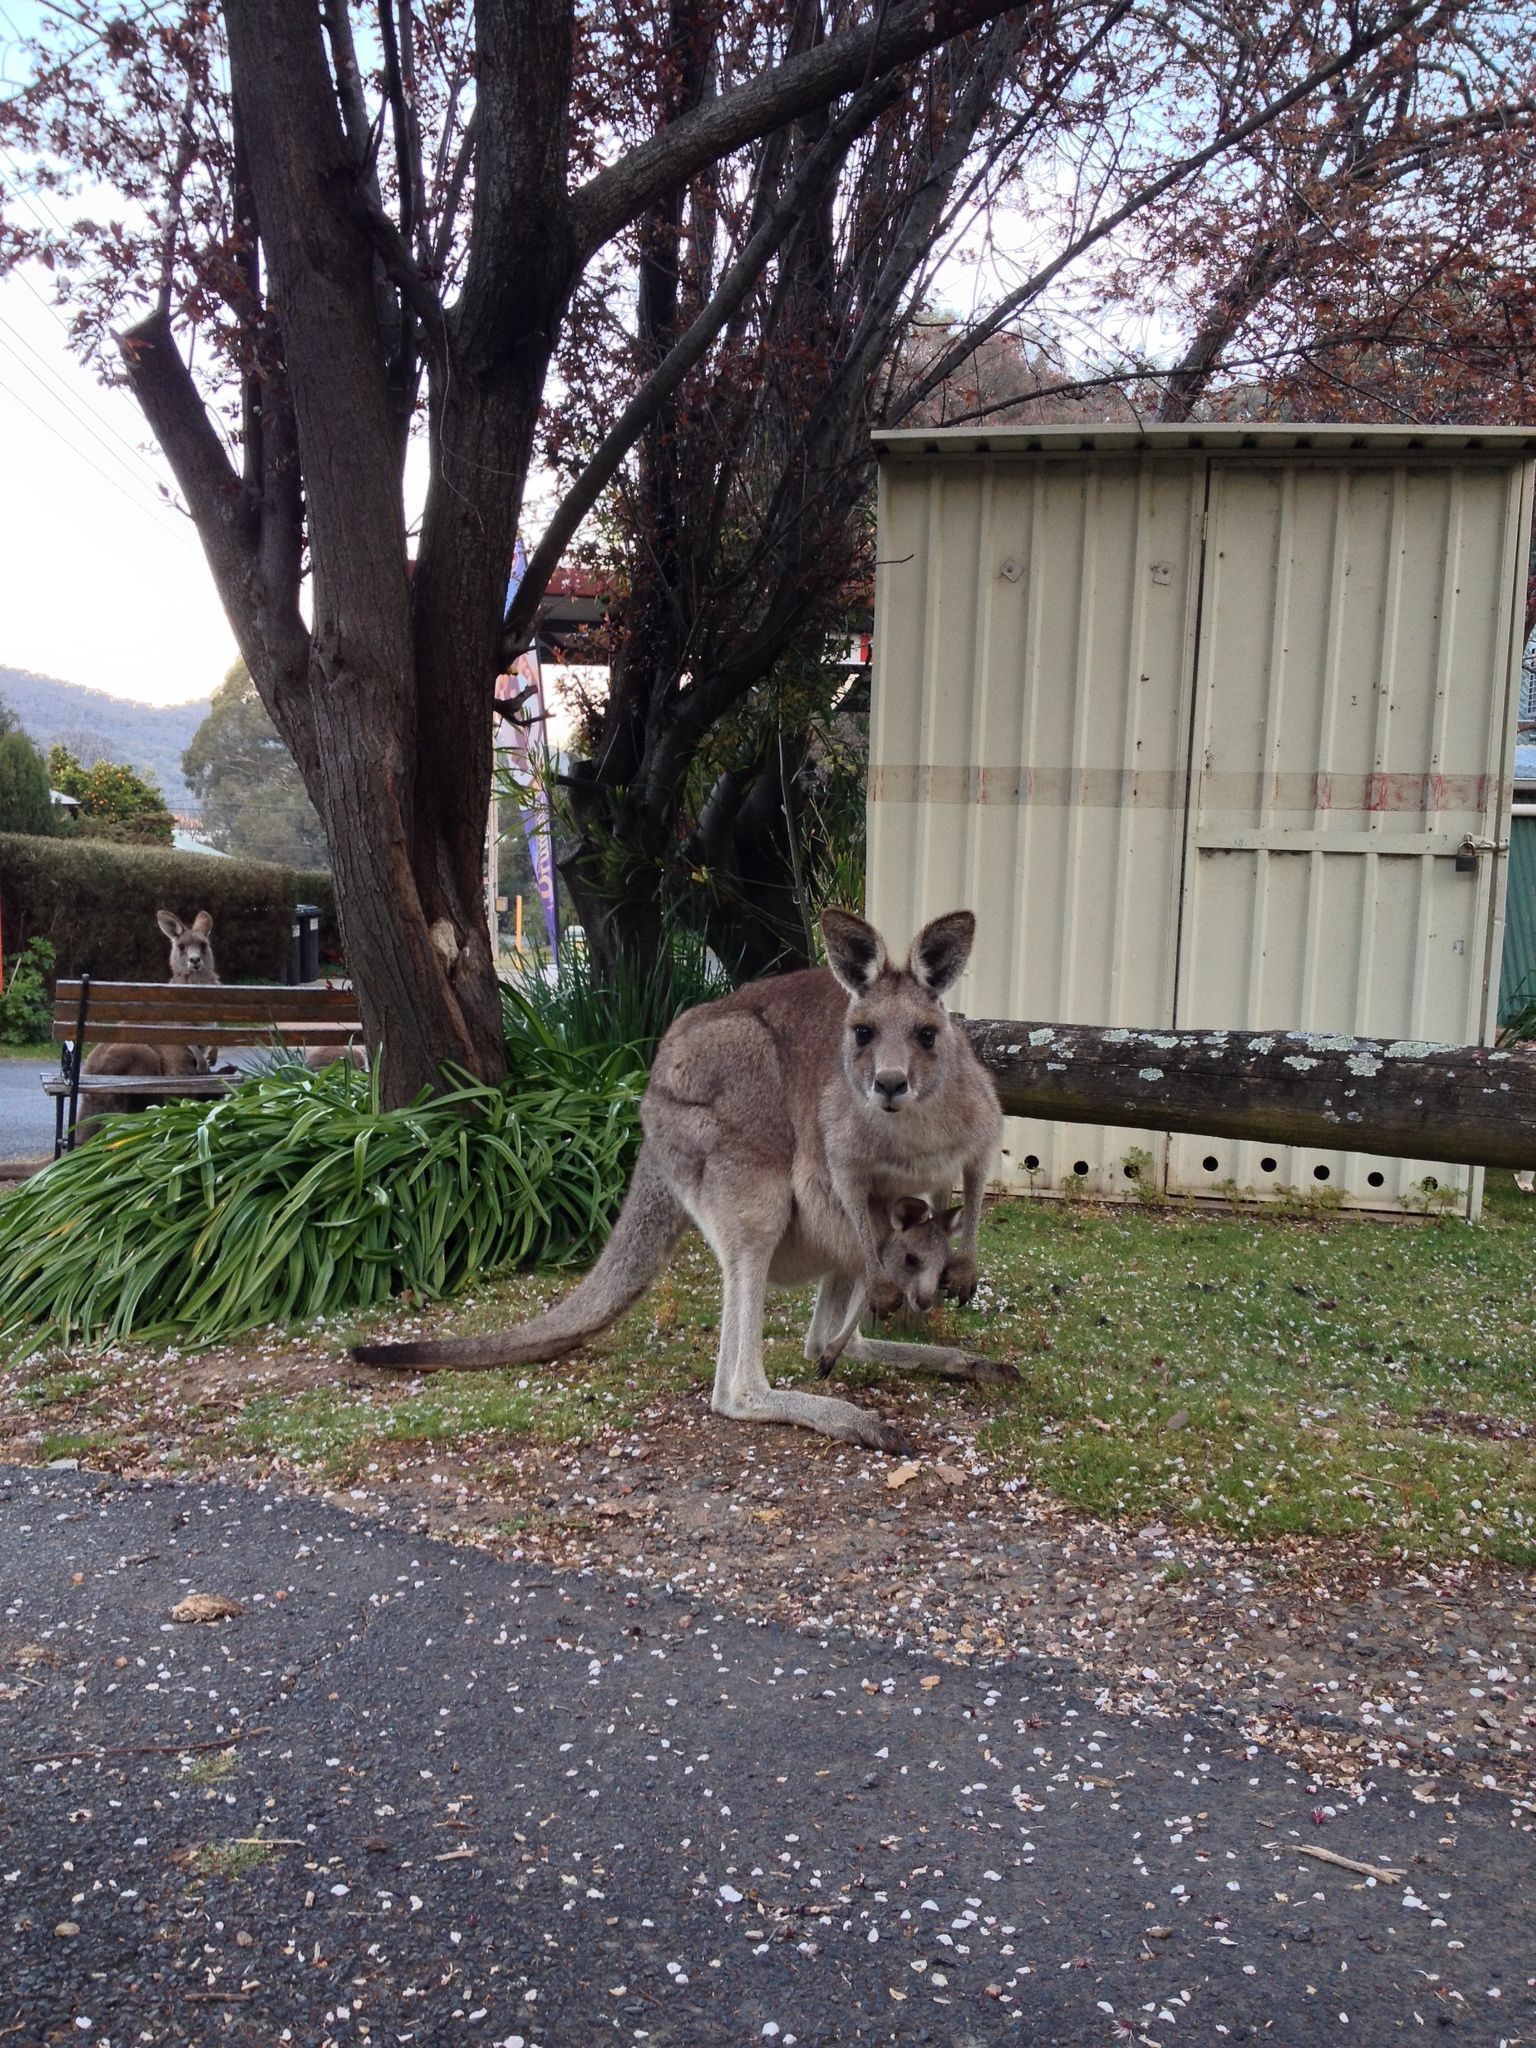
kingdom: Animalia
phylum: Chordata
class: Mammalia
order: Diprotodontia
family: Macropodidae
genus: Macropus
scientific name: Macropus giganteus
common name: Eastern grey kangaroo
